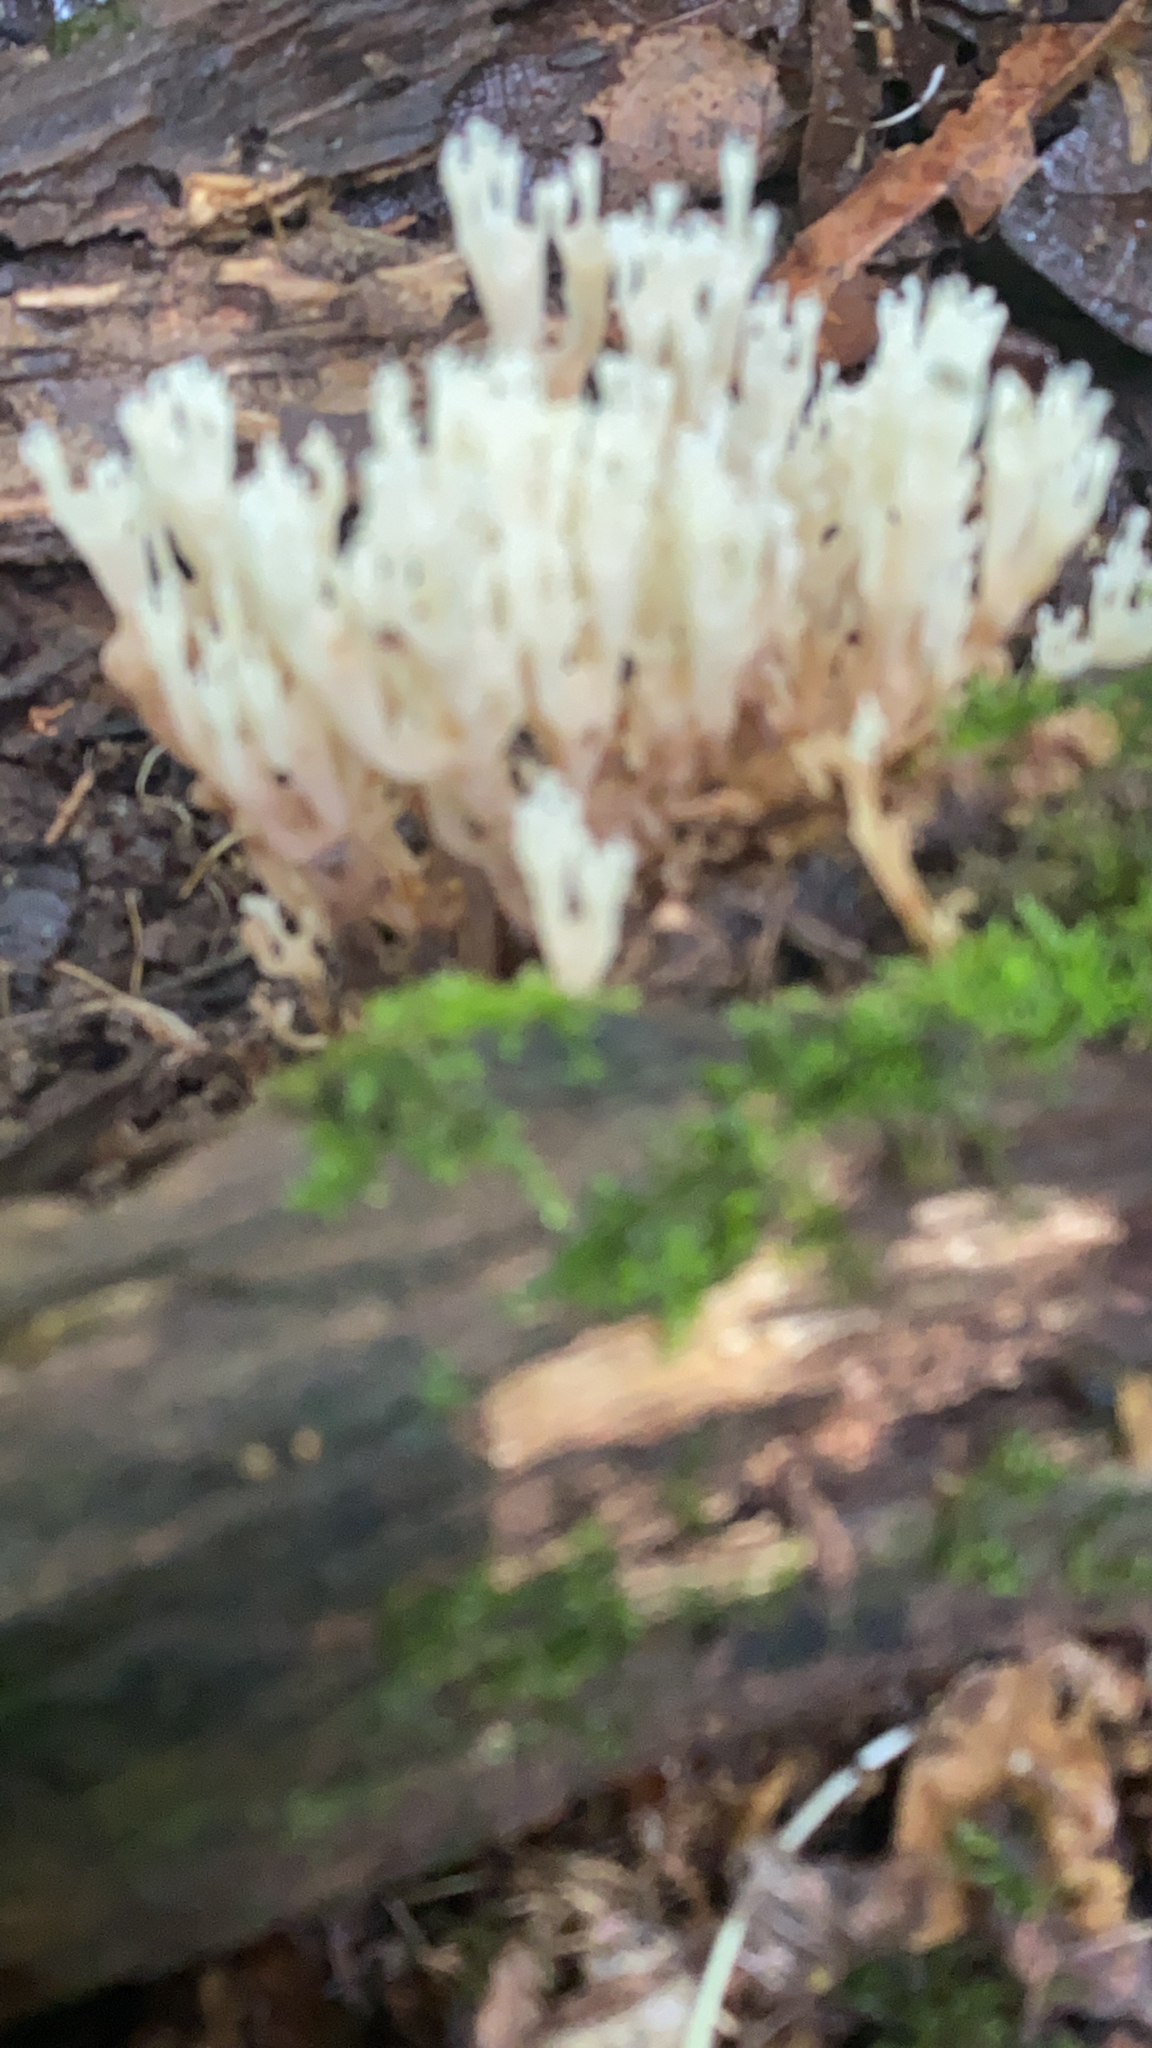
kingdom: Fungi
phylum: Basidiomycota
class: Agaricomycetes
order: Russulales
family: Auriscalpiaceae
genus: Artomyces
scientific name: Artomyces pyxidatus
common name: Crown-tipped coral fungus
